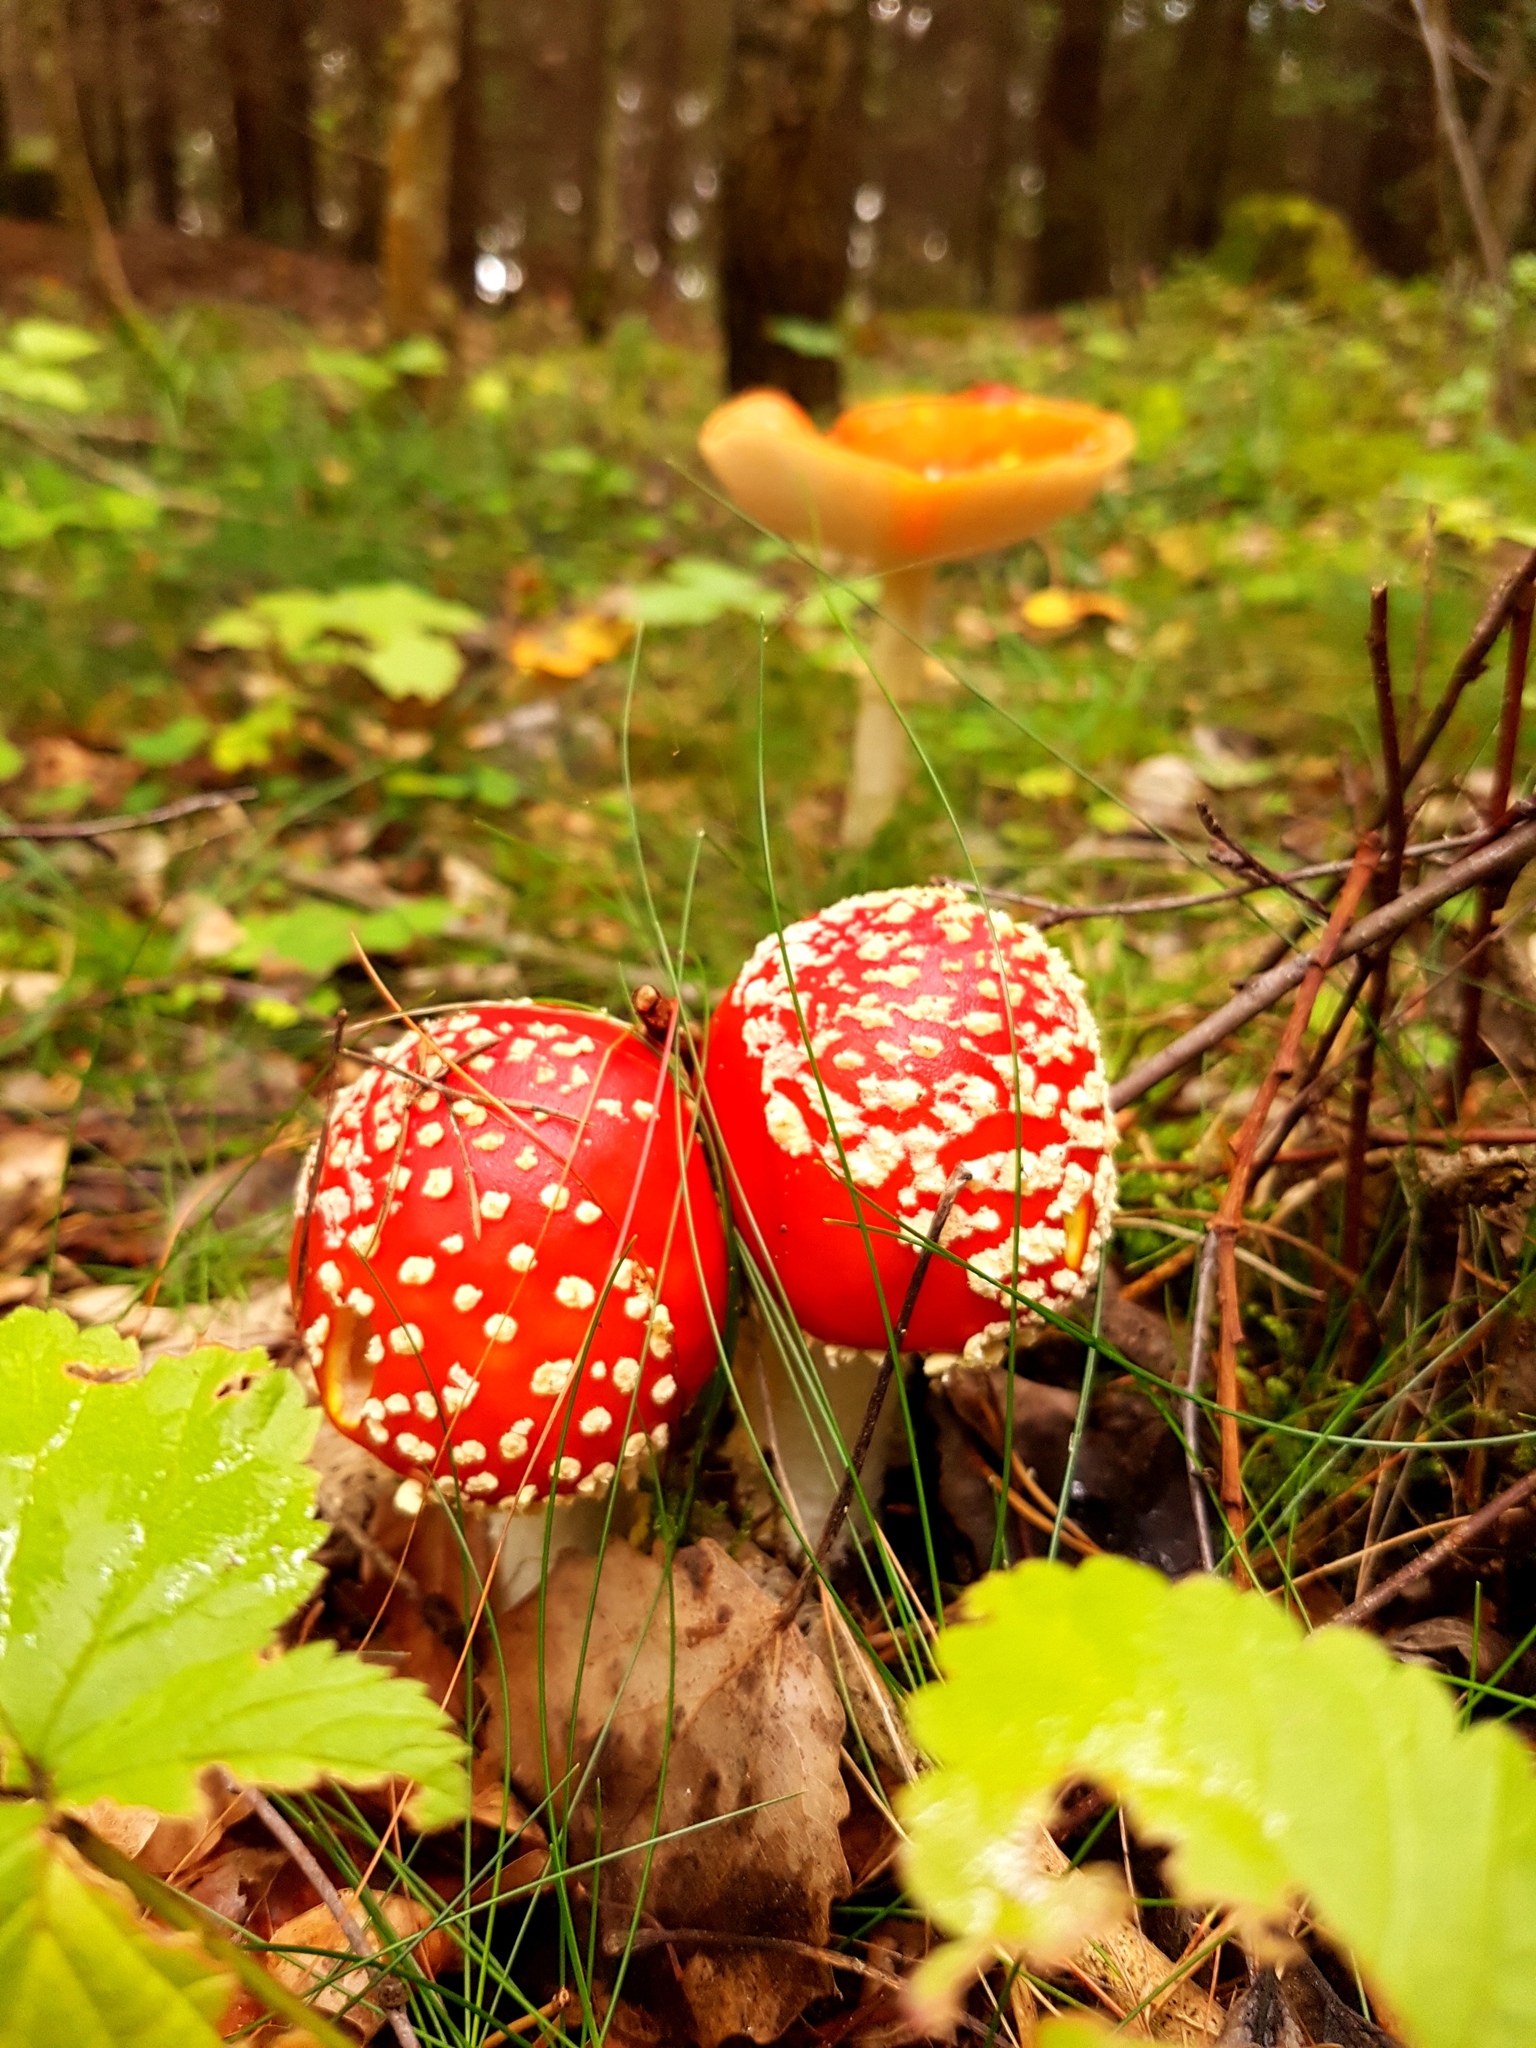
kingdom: Fungi
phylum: Basidiomycota
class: Agaricomycetes
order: Agaricales
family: Amanitaceae
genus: Amanita
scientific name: Amanita muscaria
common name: Fly agaric
